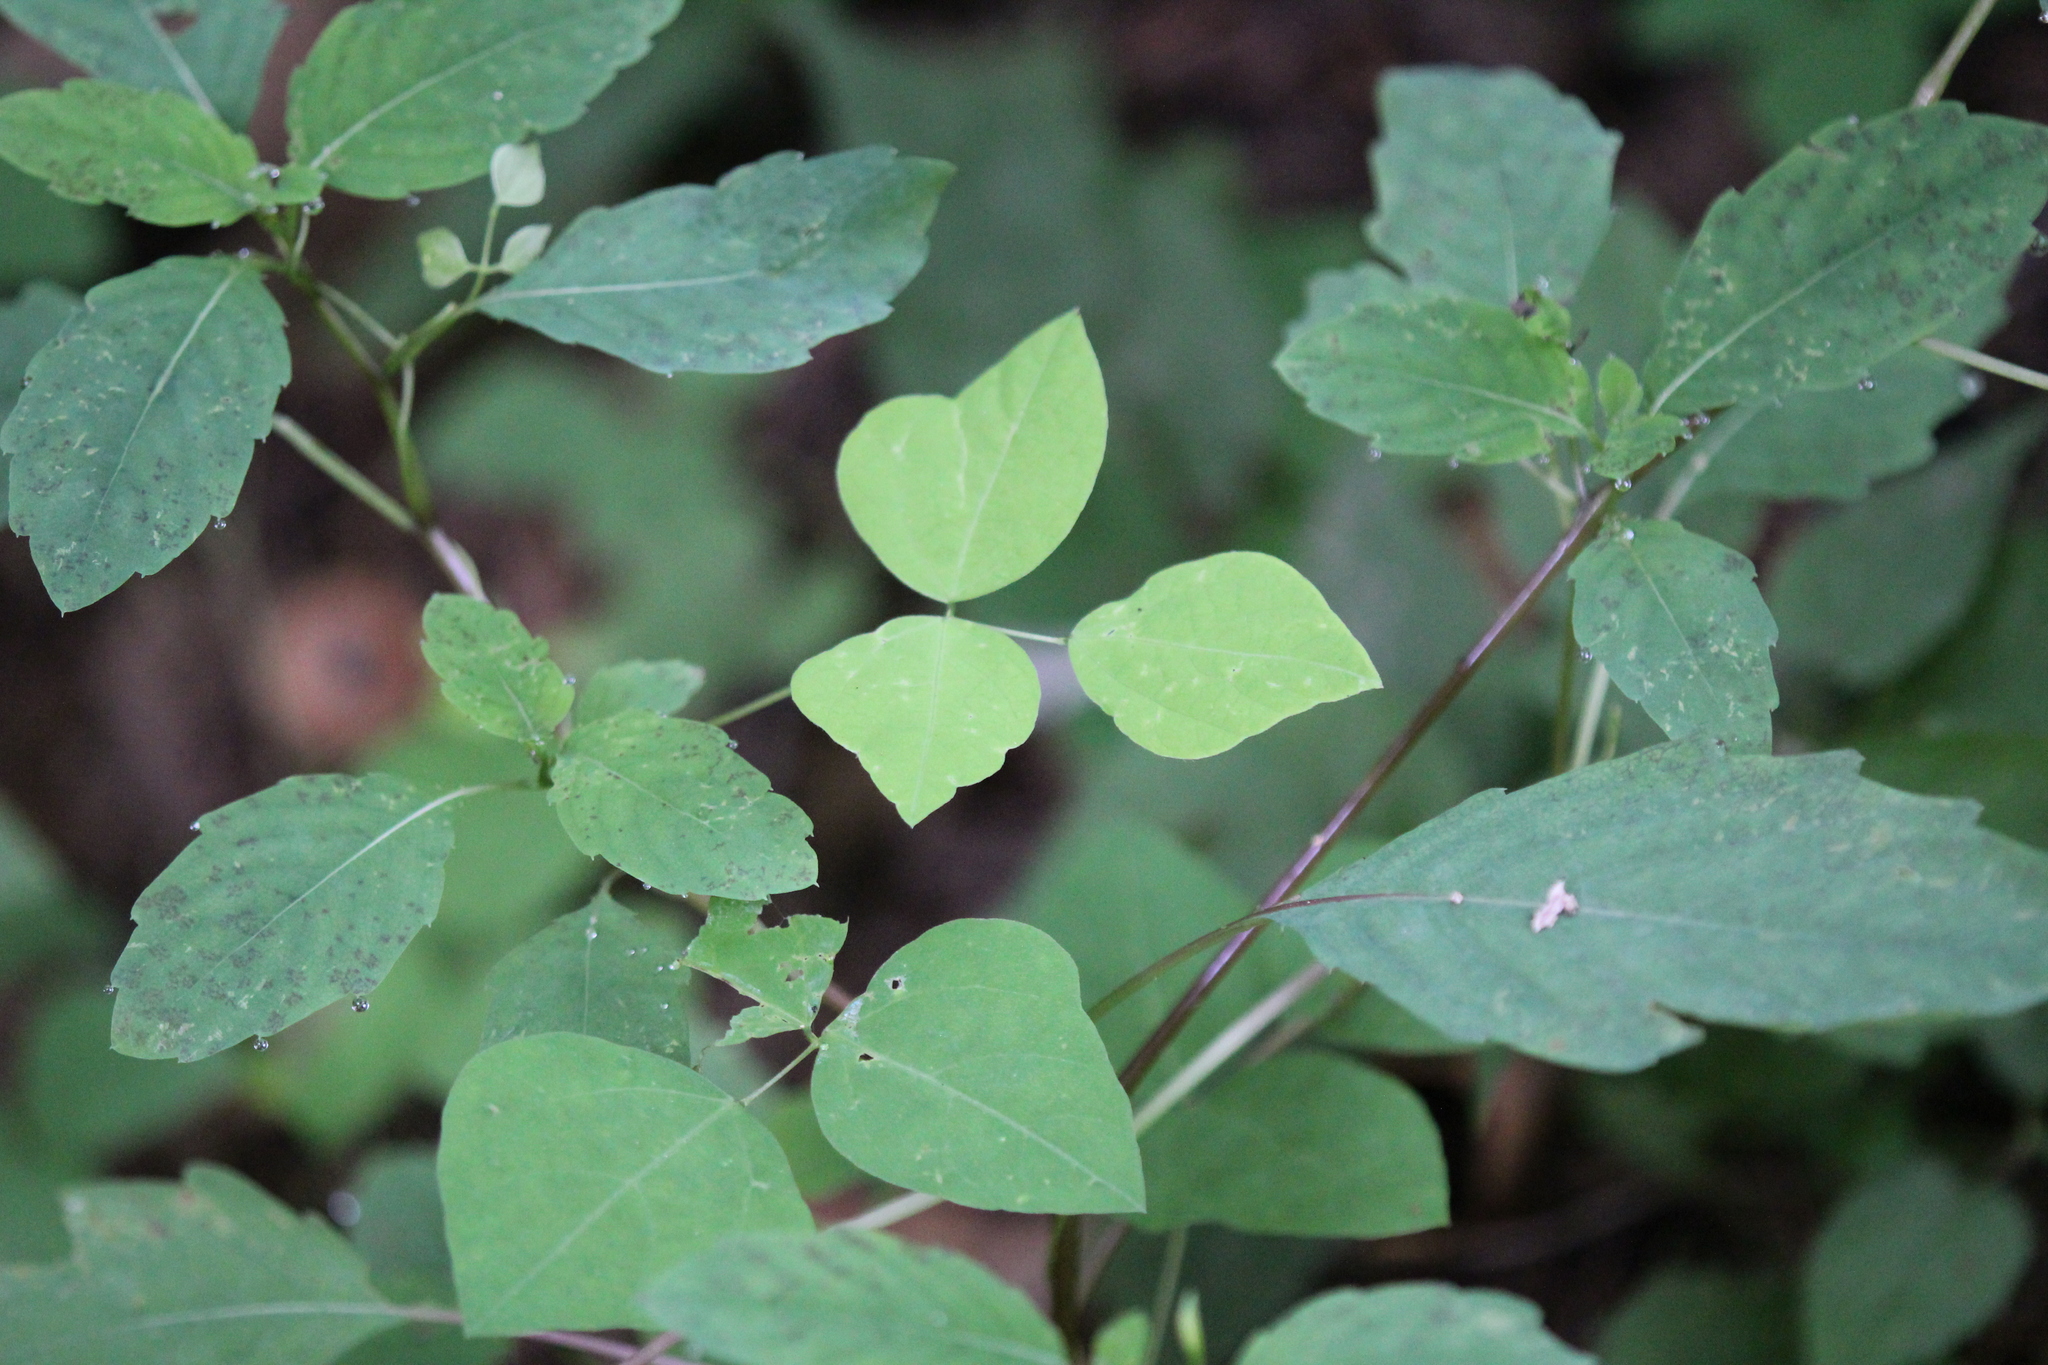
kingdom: Plantae
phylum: Tracheophyta
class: Magnoliopsida
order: Fabales
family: Fabaceae
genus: Amphicarpaea
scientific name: Amphicarpaea bracteata
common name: American hog peanut
